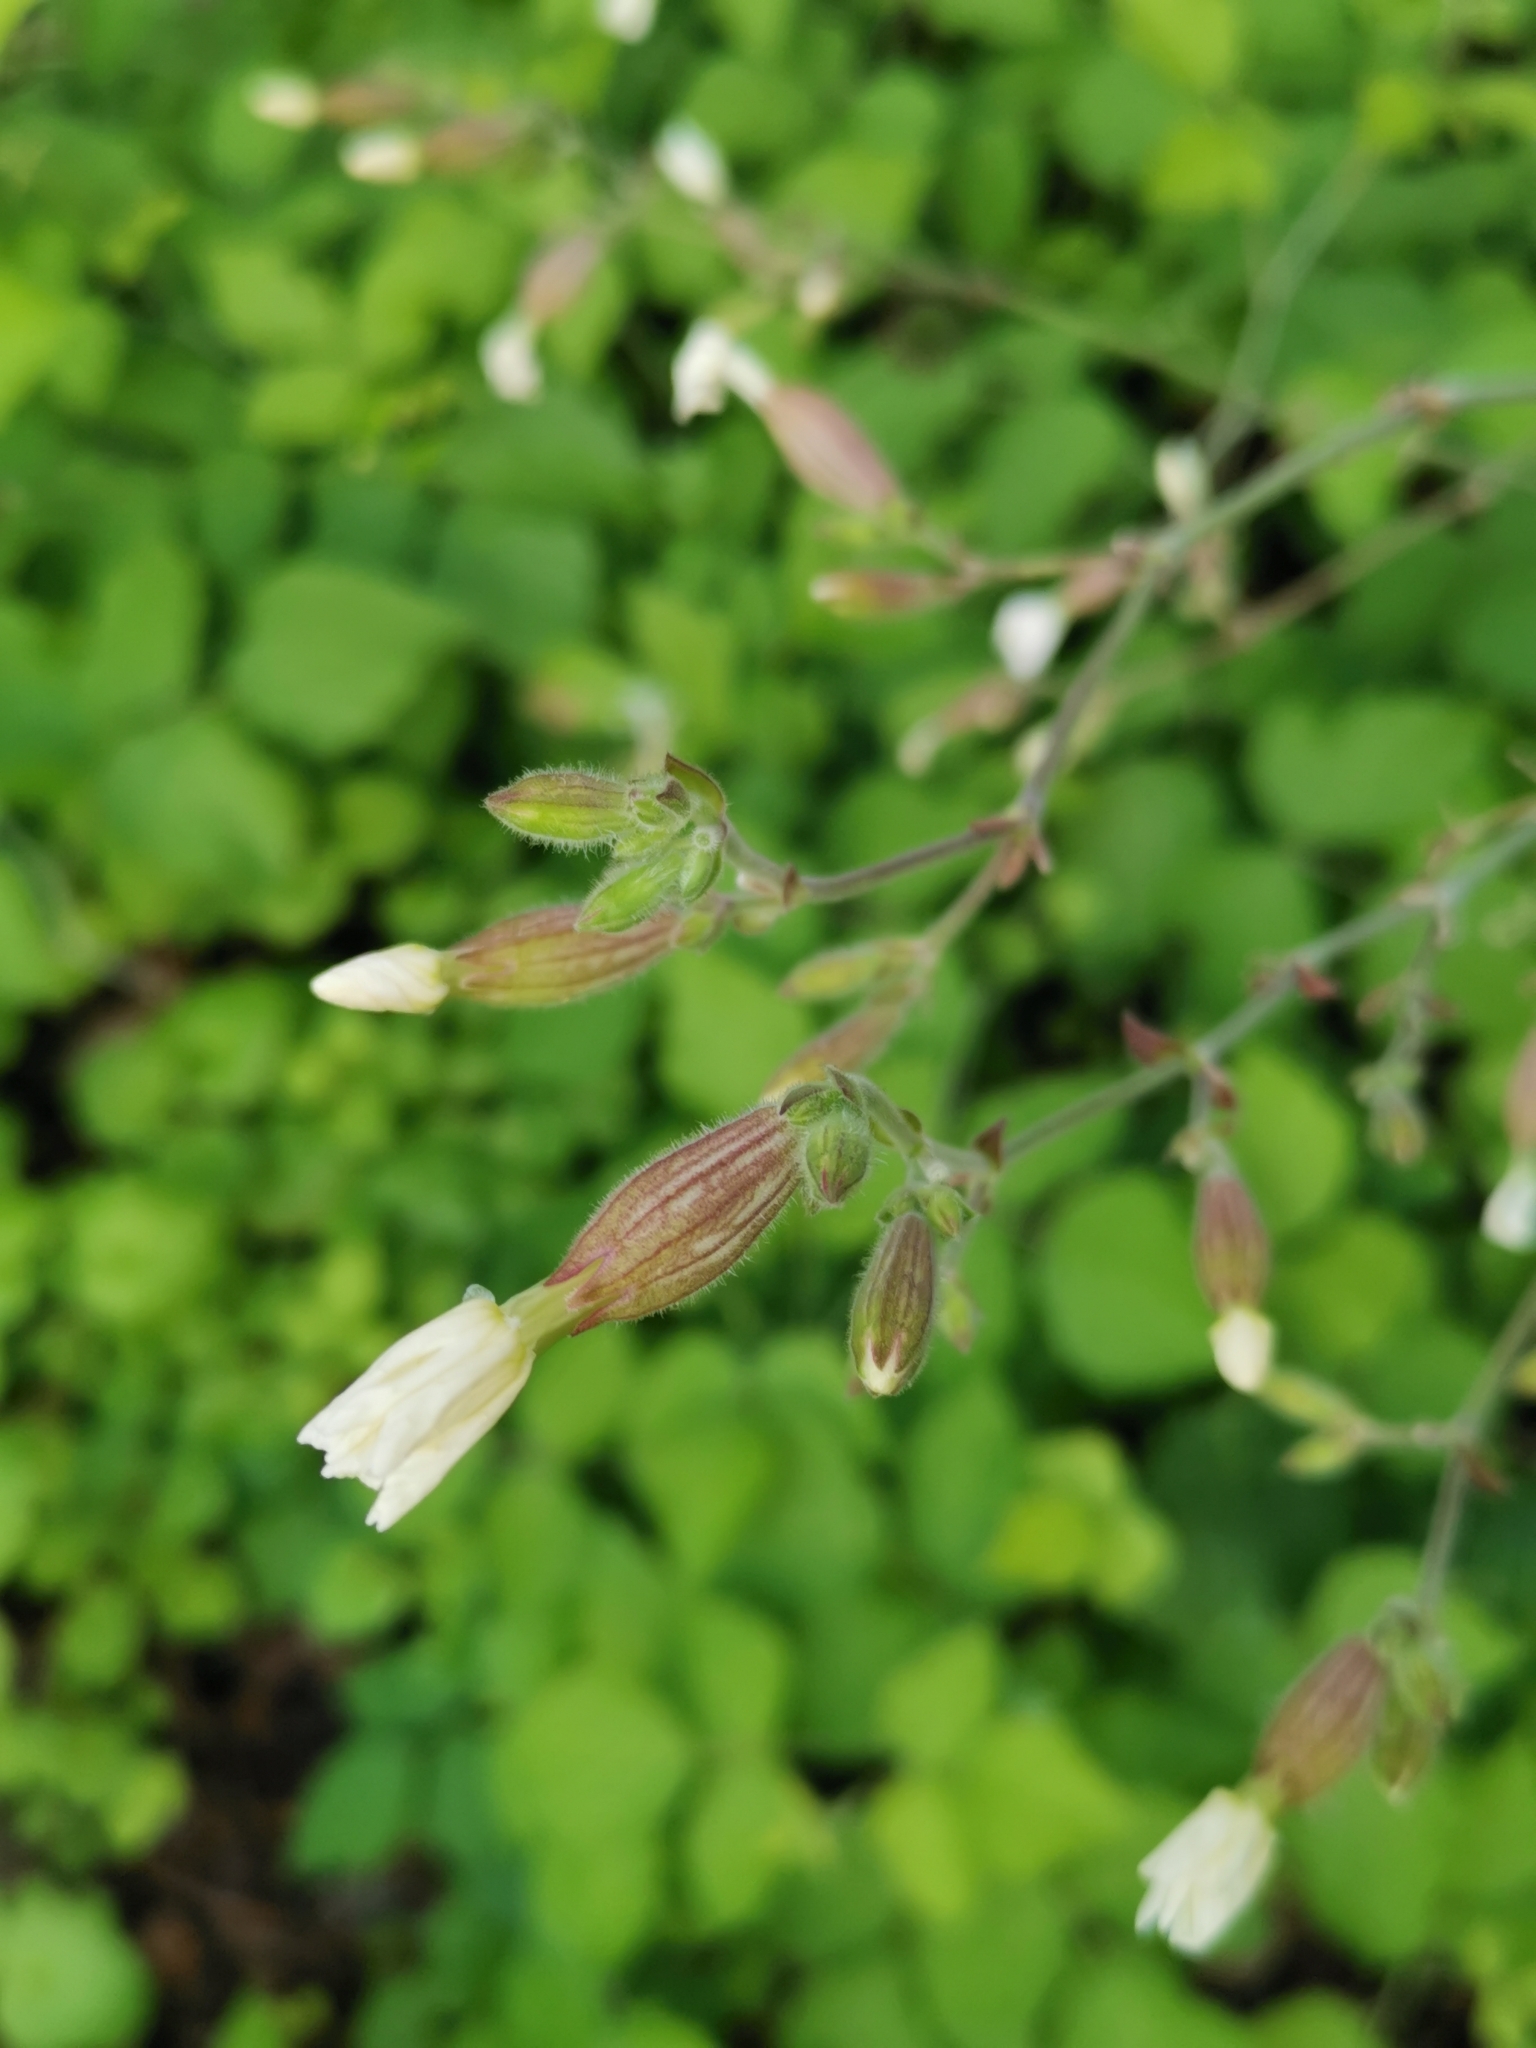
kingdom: Plantae
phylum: Tracheophyta
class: Magnoliopsida
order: Caryophyllales
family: Caryophyllaceae
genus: Silene
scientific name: Silene latifolia
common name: White campion
